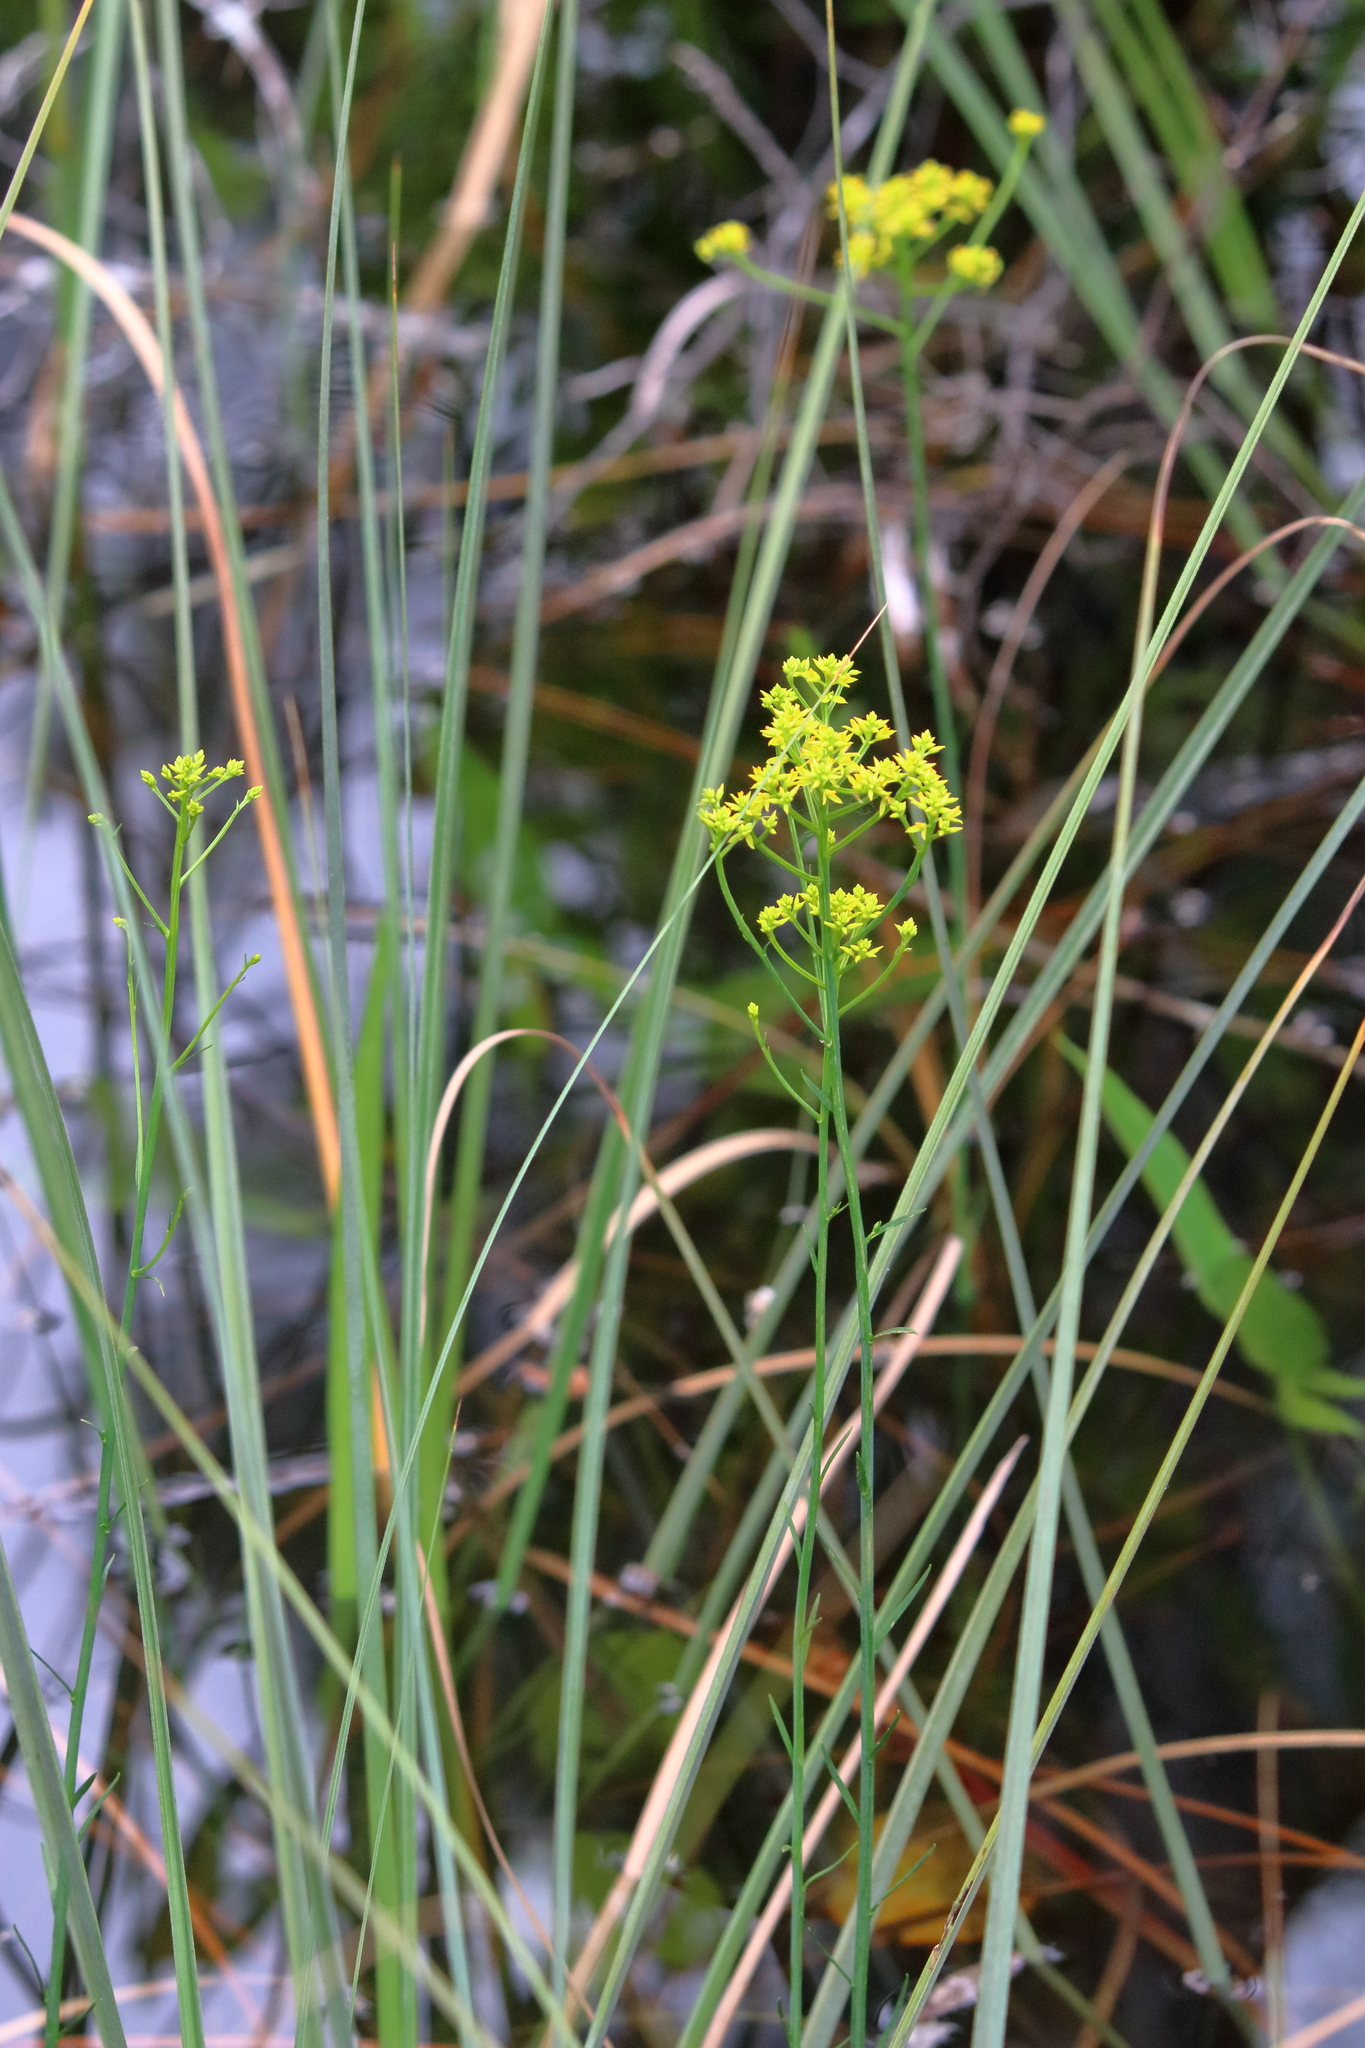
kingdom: Plantae
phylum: Tracheophyta
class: Magnoliopsida
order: Fabales
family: Polygalaceae
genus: Polygala
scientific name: Polygala cymosa
